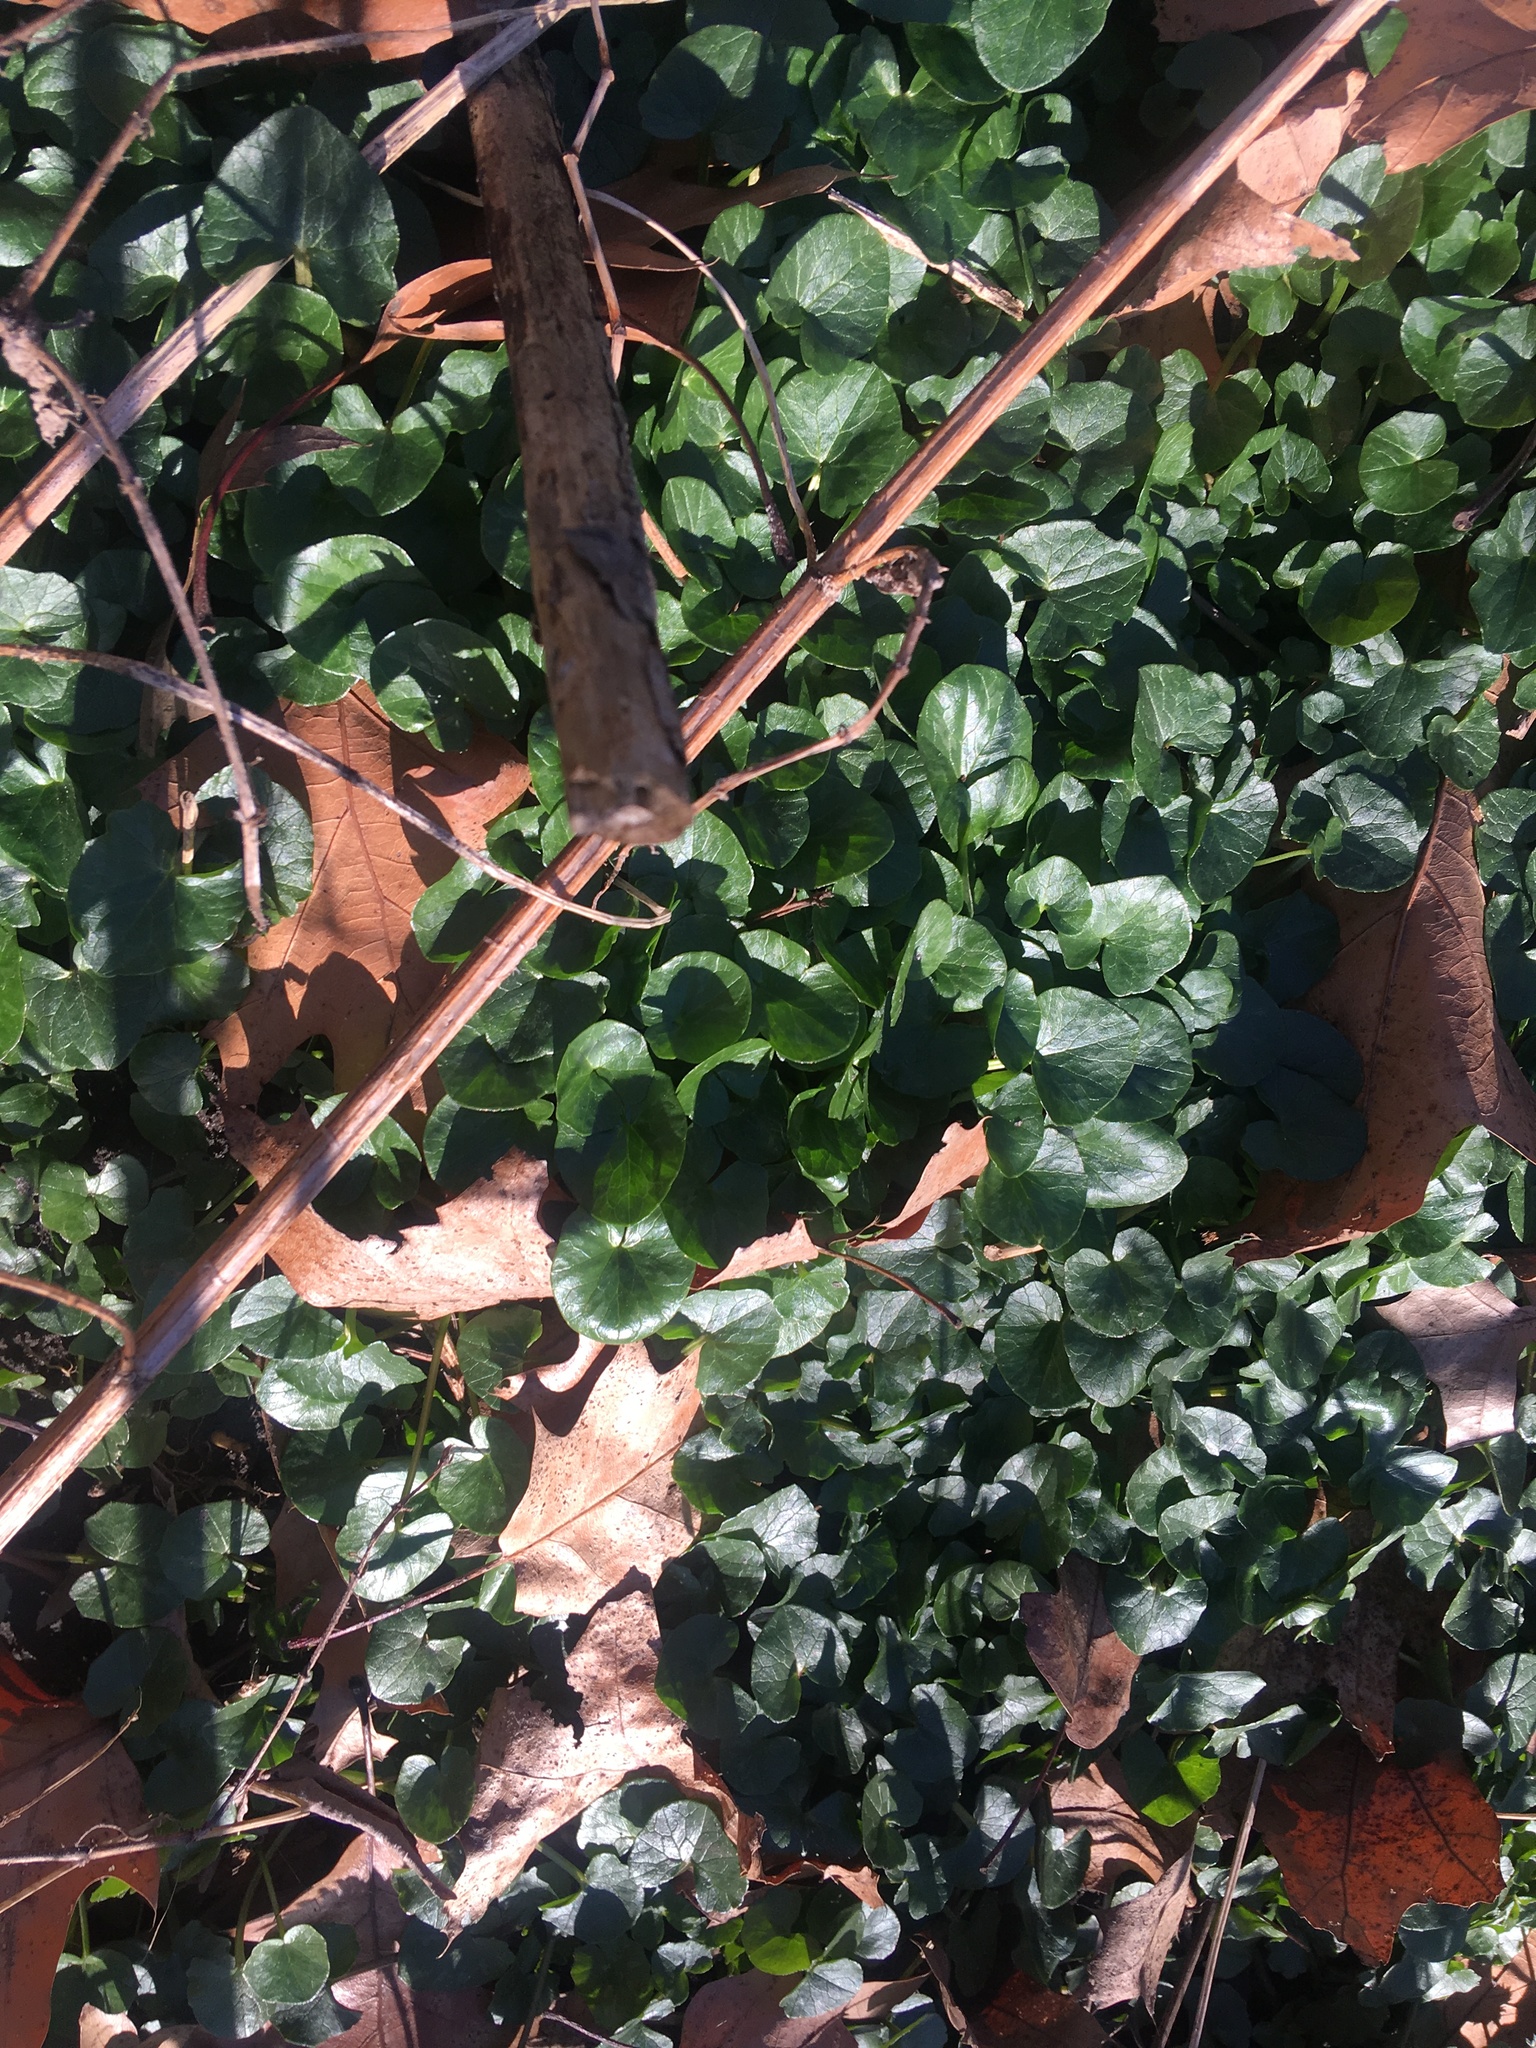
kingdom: Plantae
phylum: Tracheophyta
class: Magnoliopsida
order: Ranunculales
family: Ranunculaceae
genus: Ficaria
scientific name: Ficaria verna
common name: Lesser celandine
